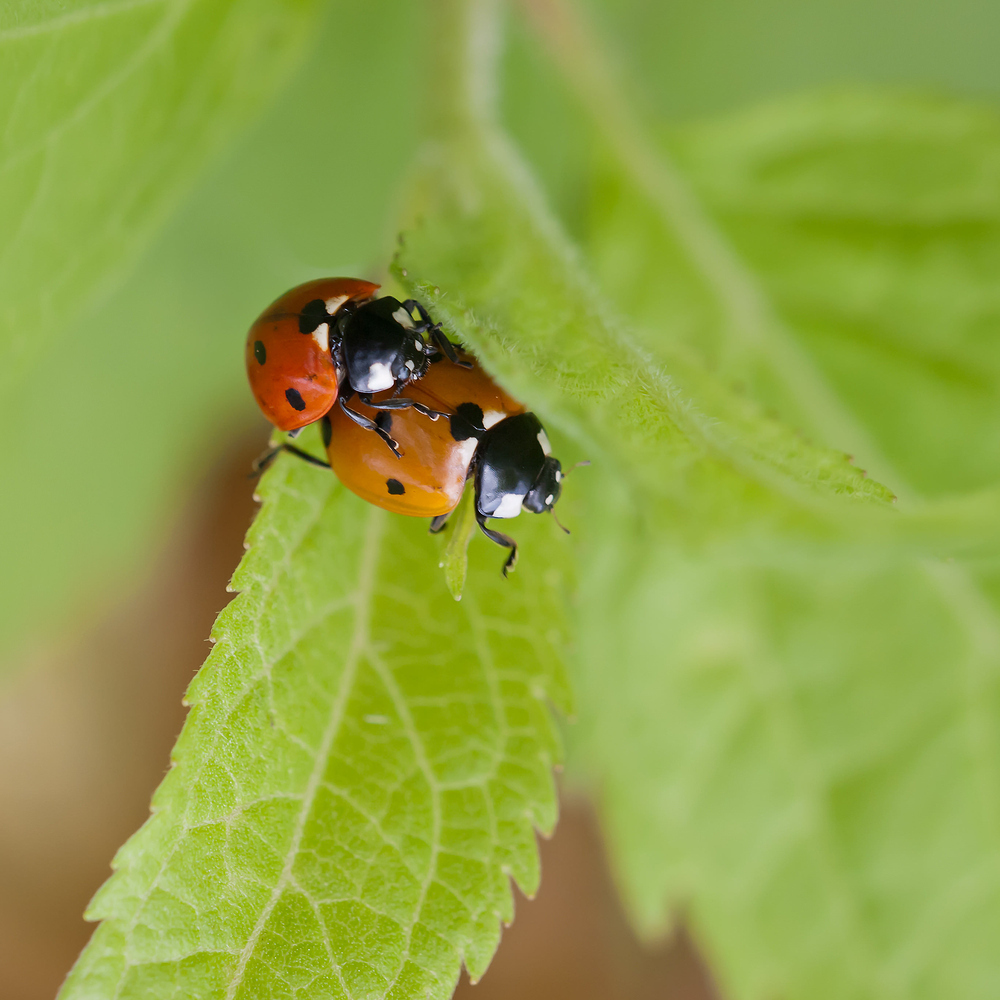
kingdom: Animalia
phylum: Arthropoda
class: Insecta
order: Coleoptera
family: Coccinellidae
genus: Coccinella
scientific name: Coccinella septempunctata
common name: Sevenspotted lady beetle
